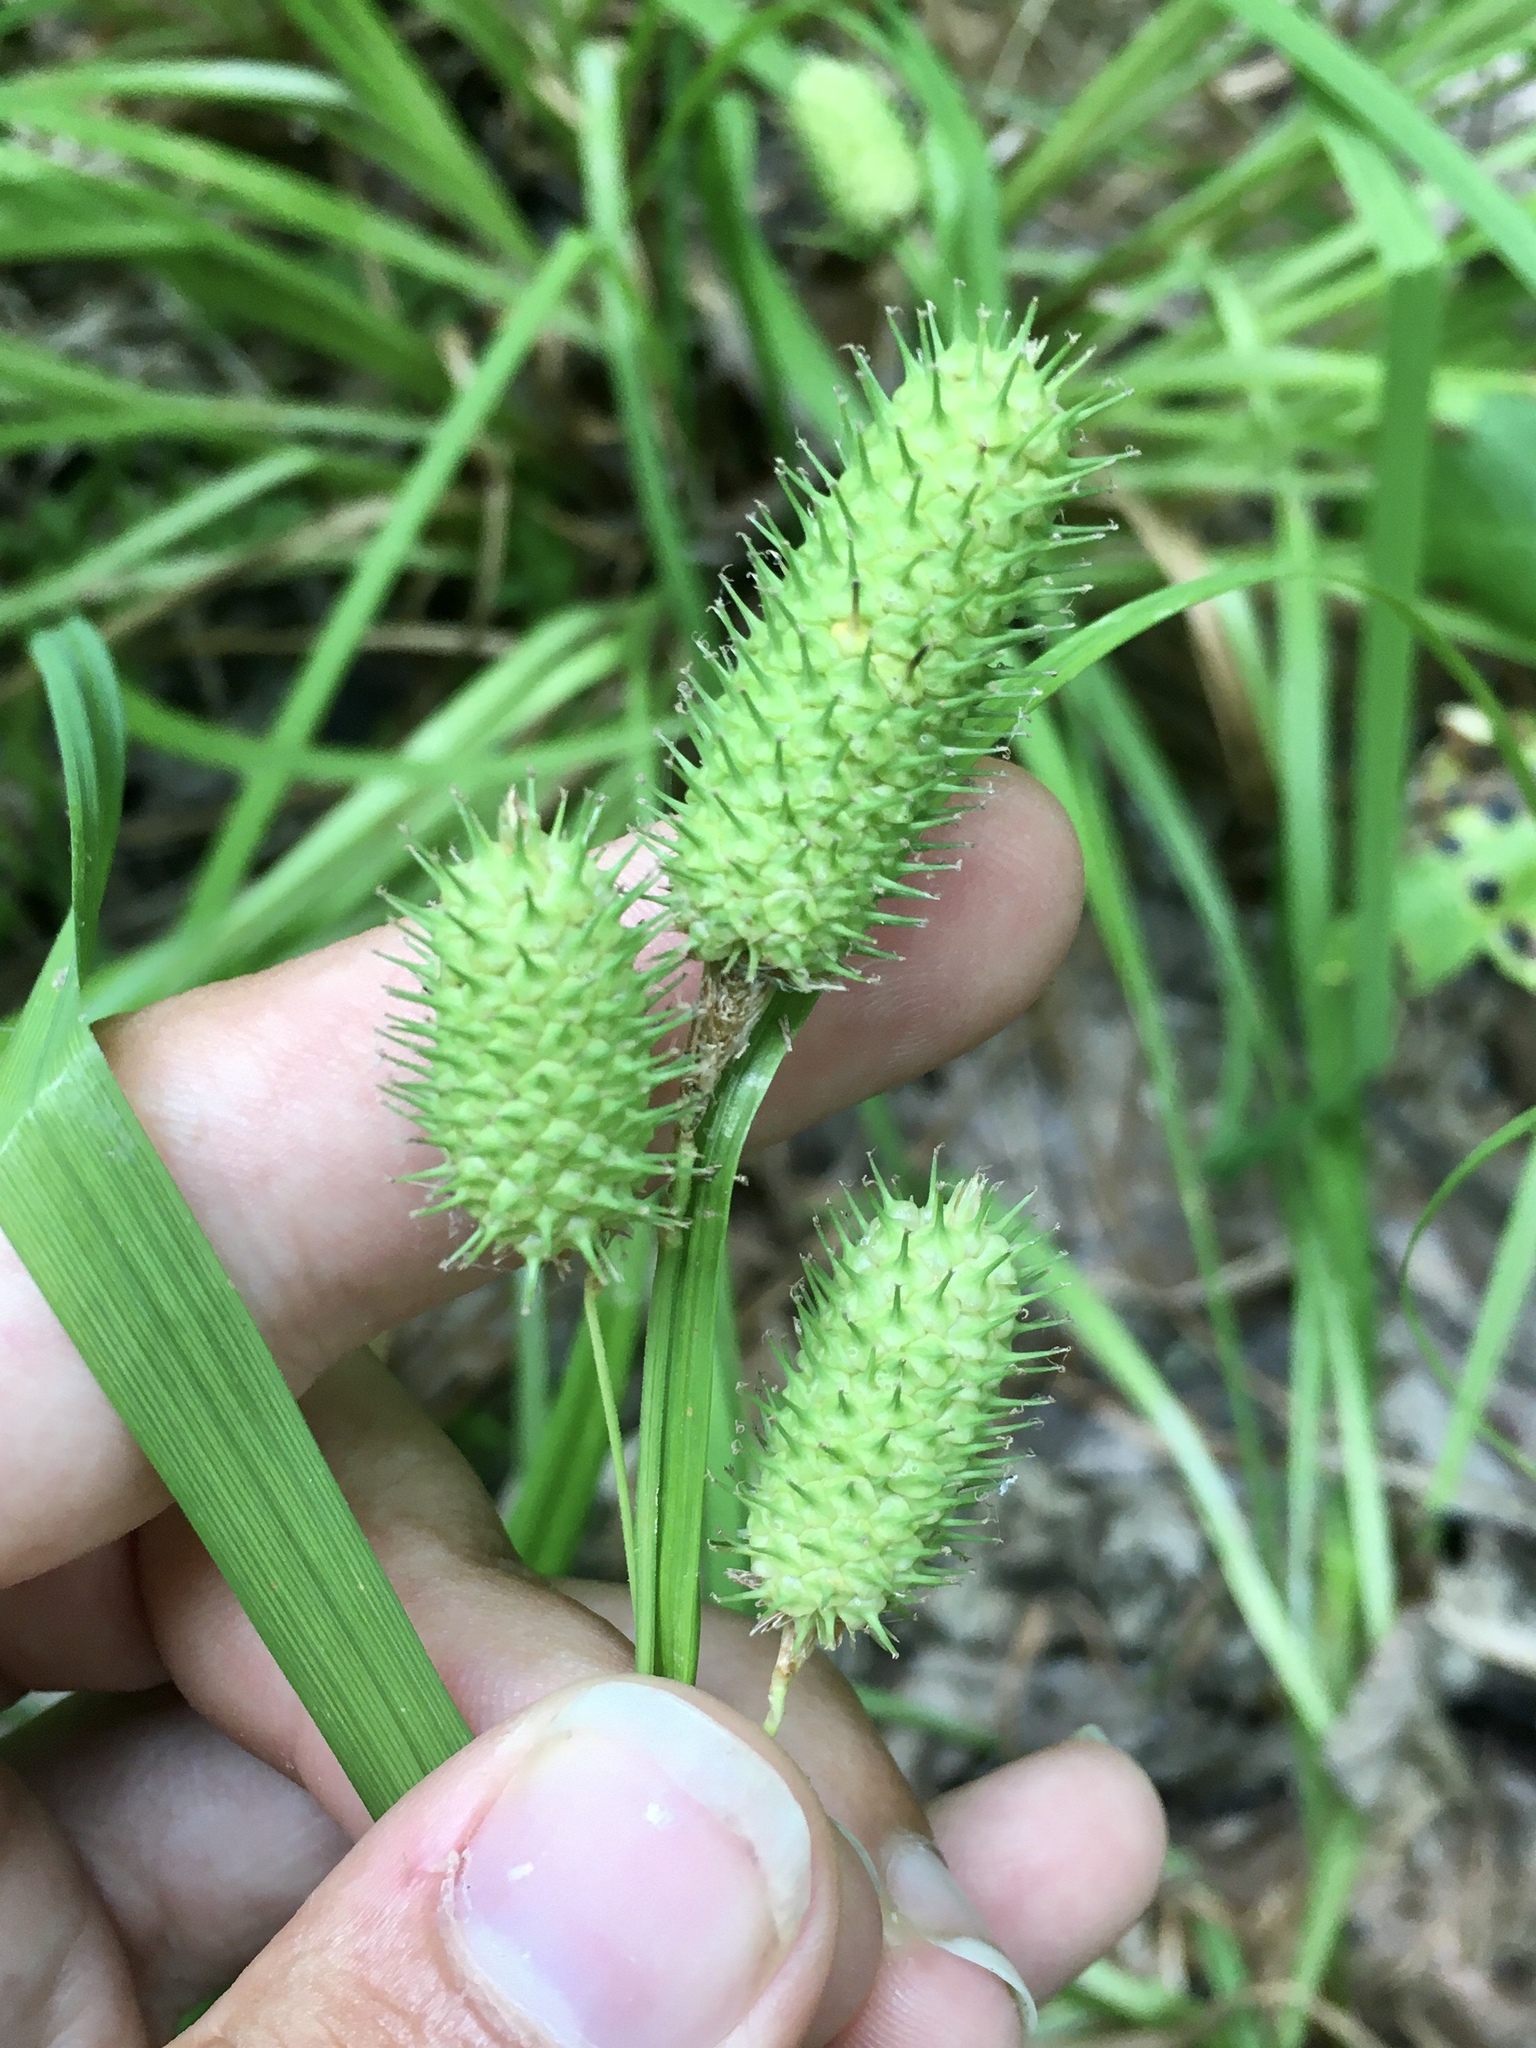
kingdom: Plantae
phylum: Tracheophyta
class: Liliopsida
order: Poales
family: Cyperaceae
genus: Carex
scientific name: Carex typhina
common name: Cattail sedge
